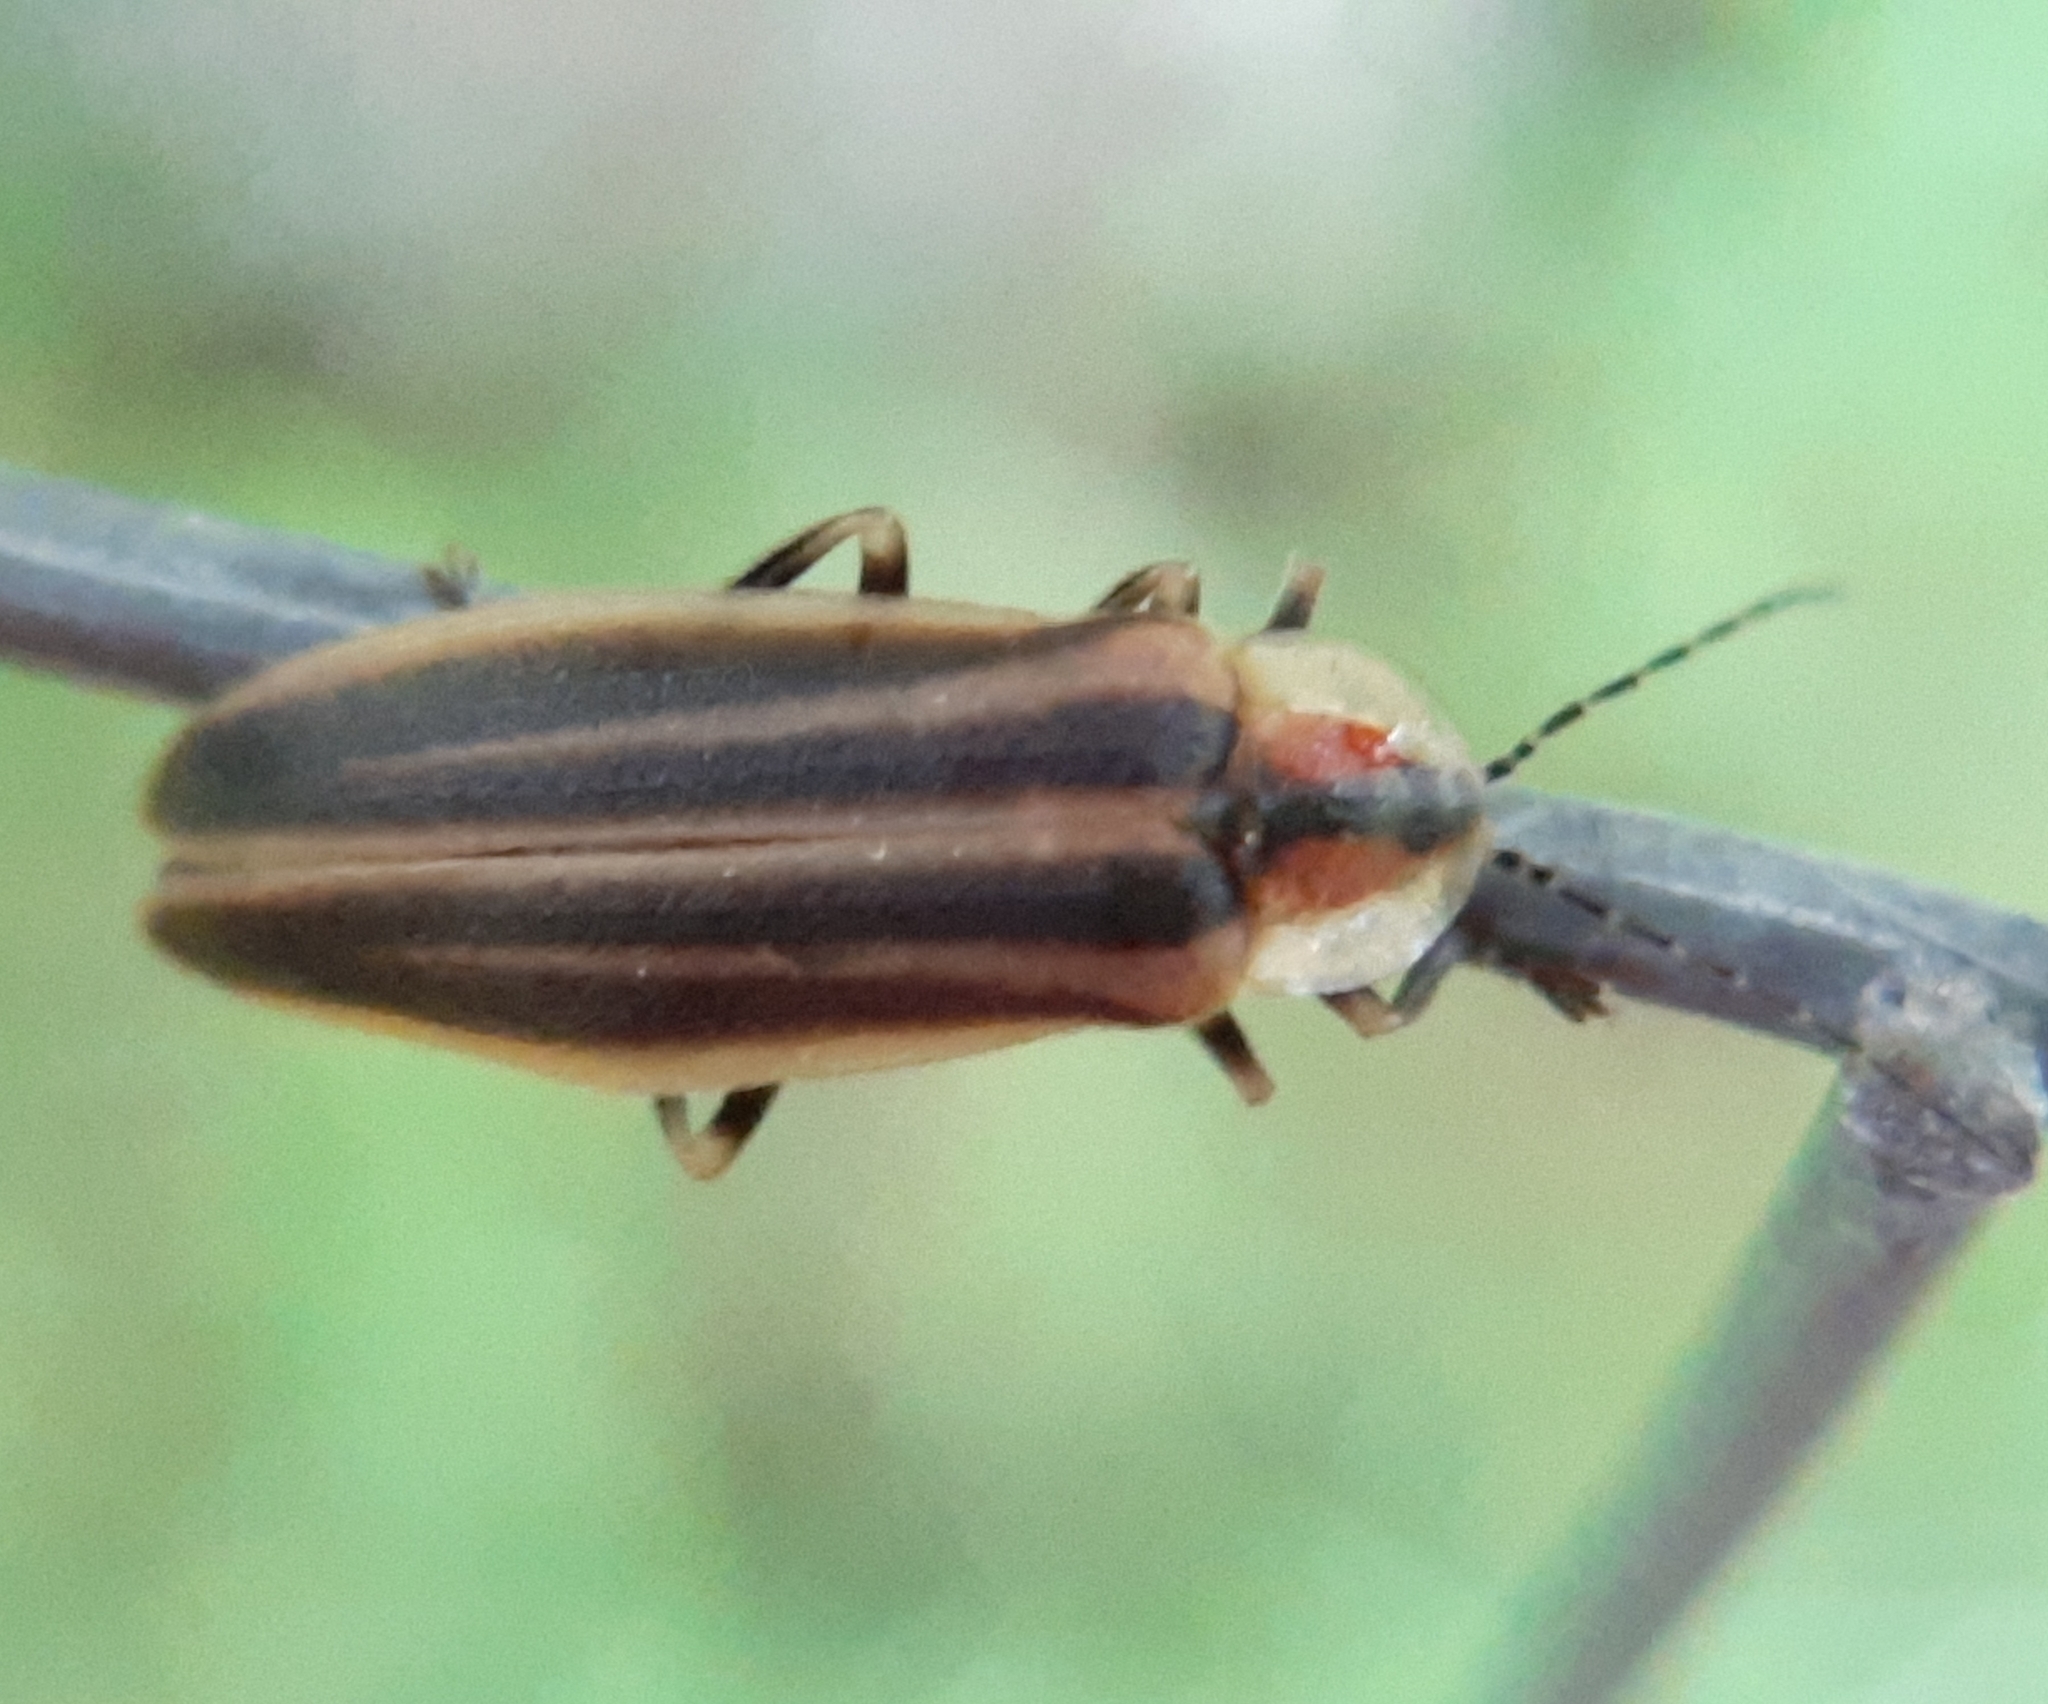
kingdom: Animalia
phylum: Arthropoda
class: Insecta
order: Coleoptera
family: Lampyridae
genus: Photuris
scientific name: Photuris fairchildi
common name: Cape breton firefly
